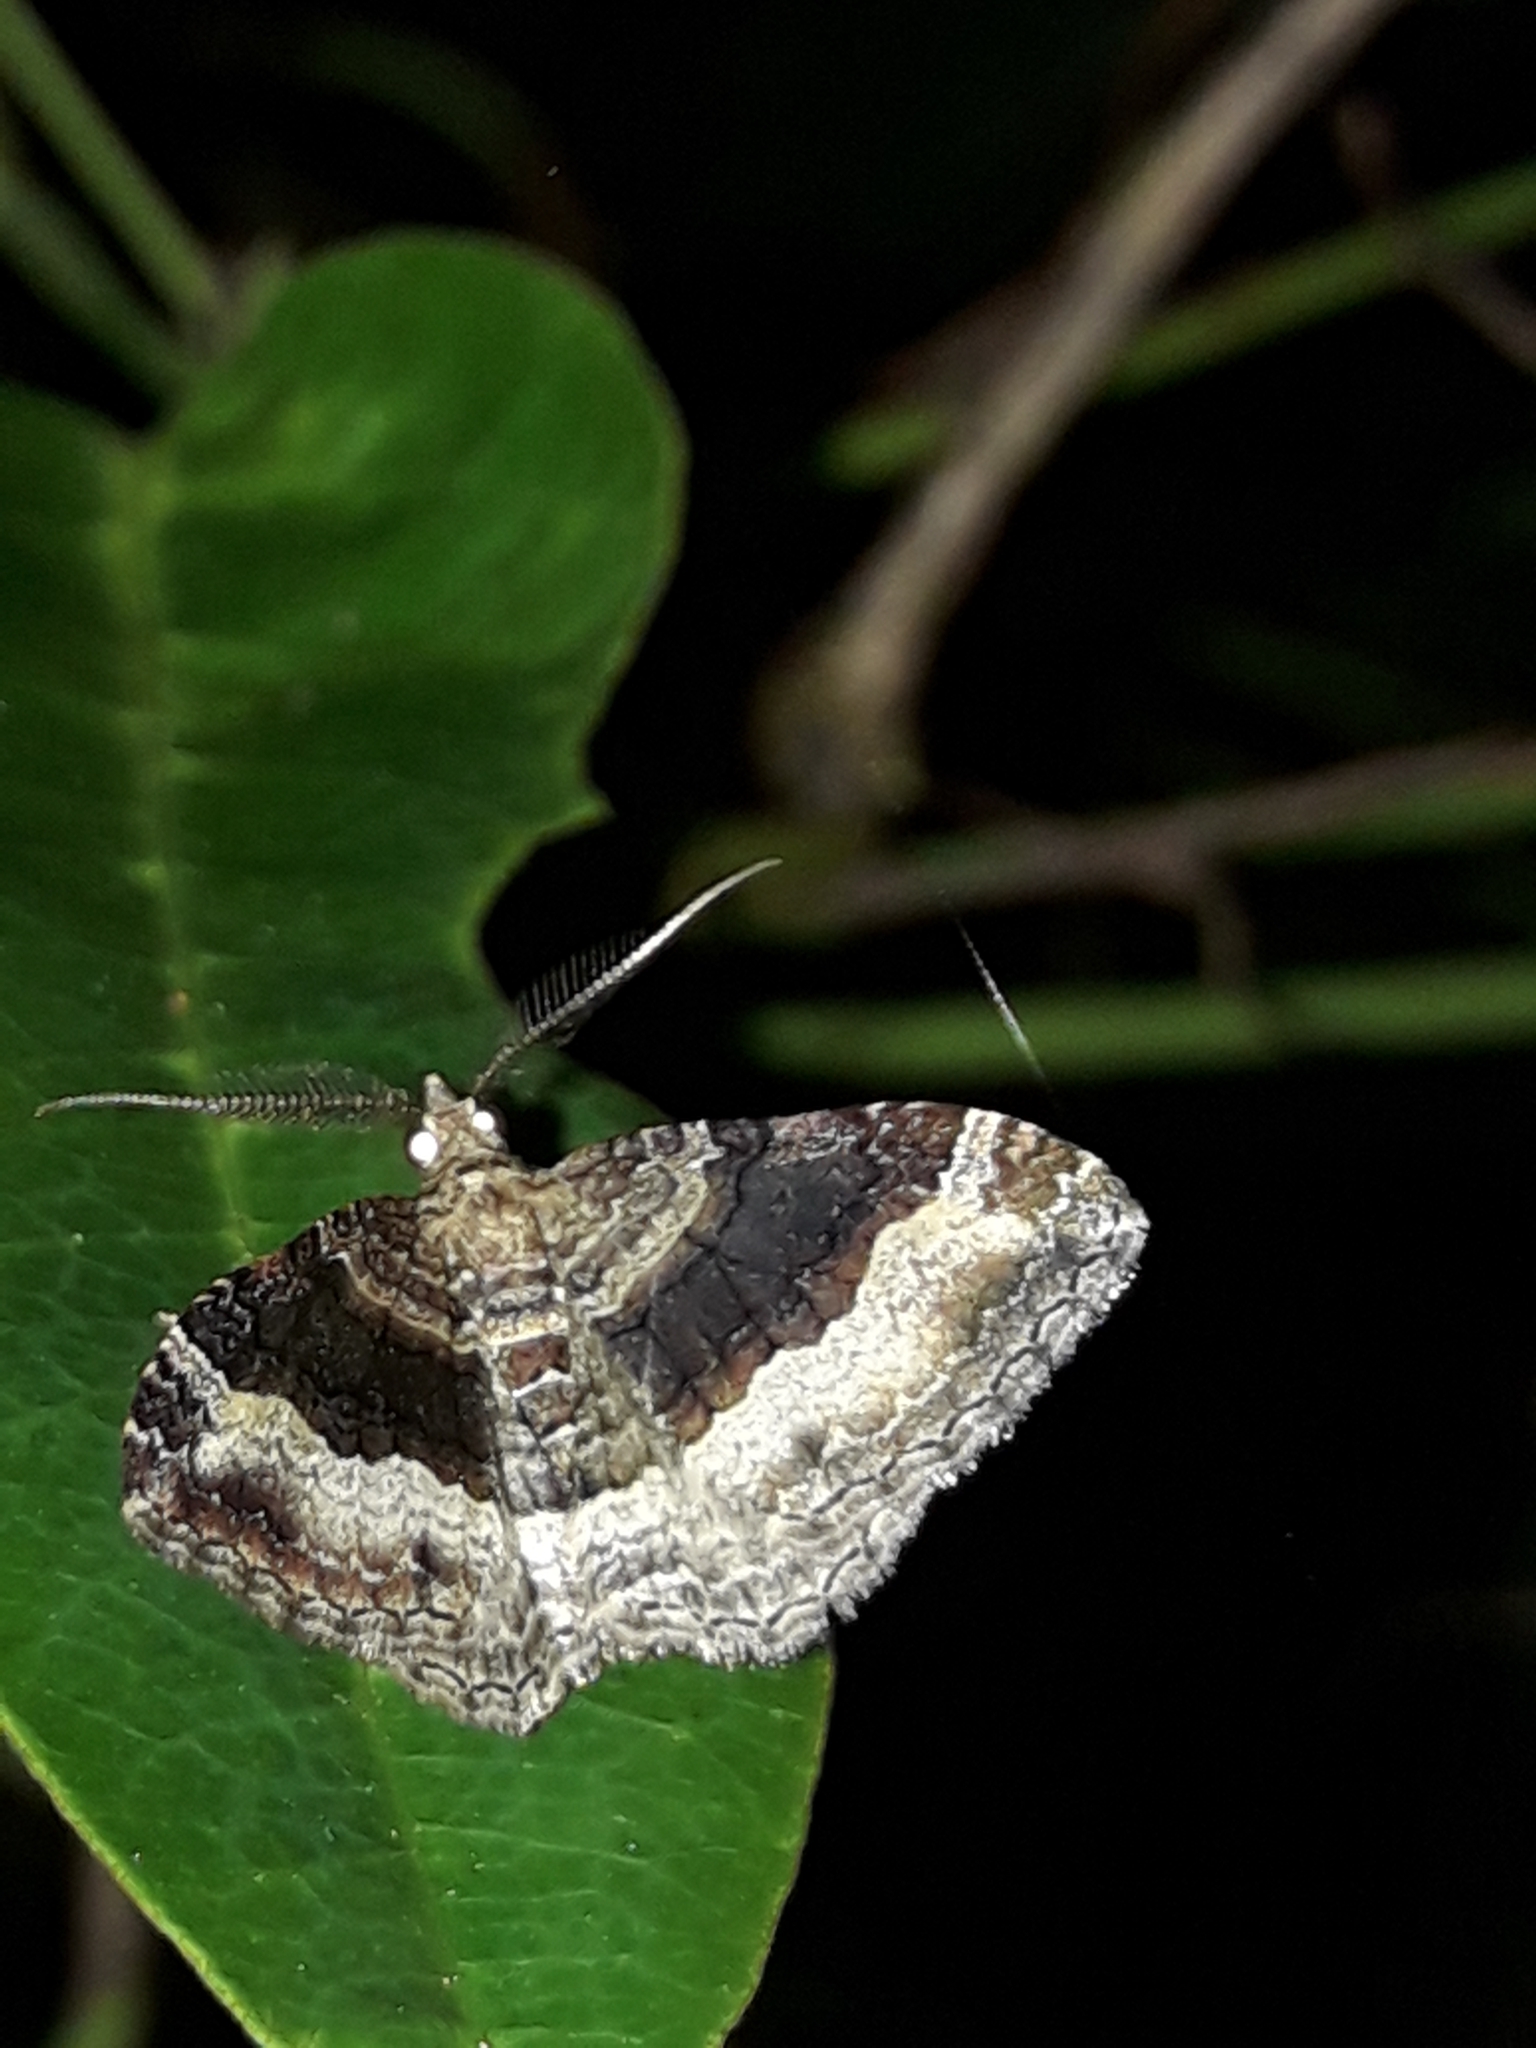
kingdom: Animalia
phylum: Arthropoda
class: Insecta
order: Lepidoptera
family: Geometridae
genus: Epyaxa
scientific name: Epyaxa lucidata
